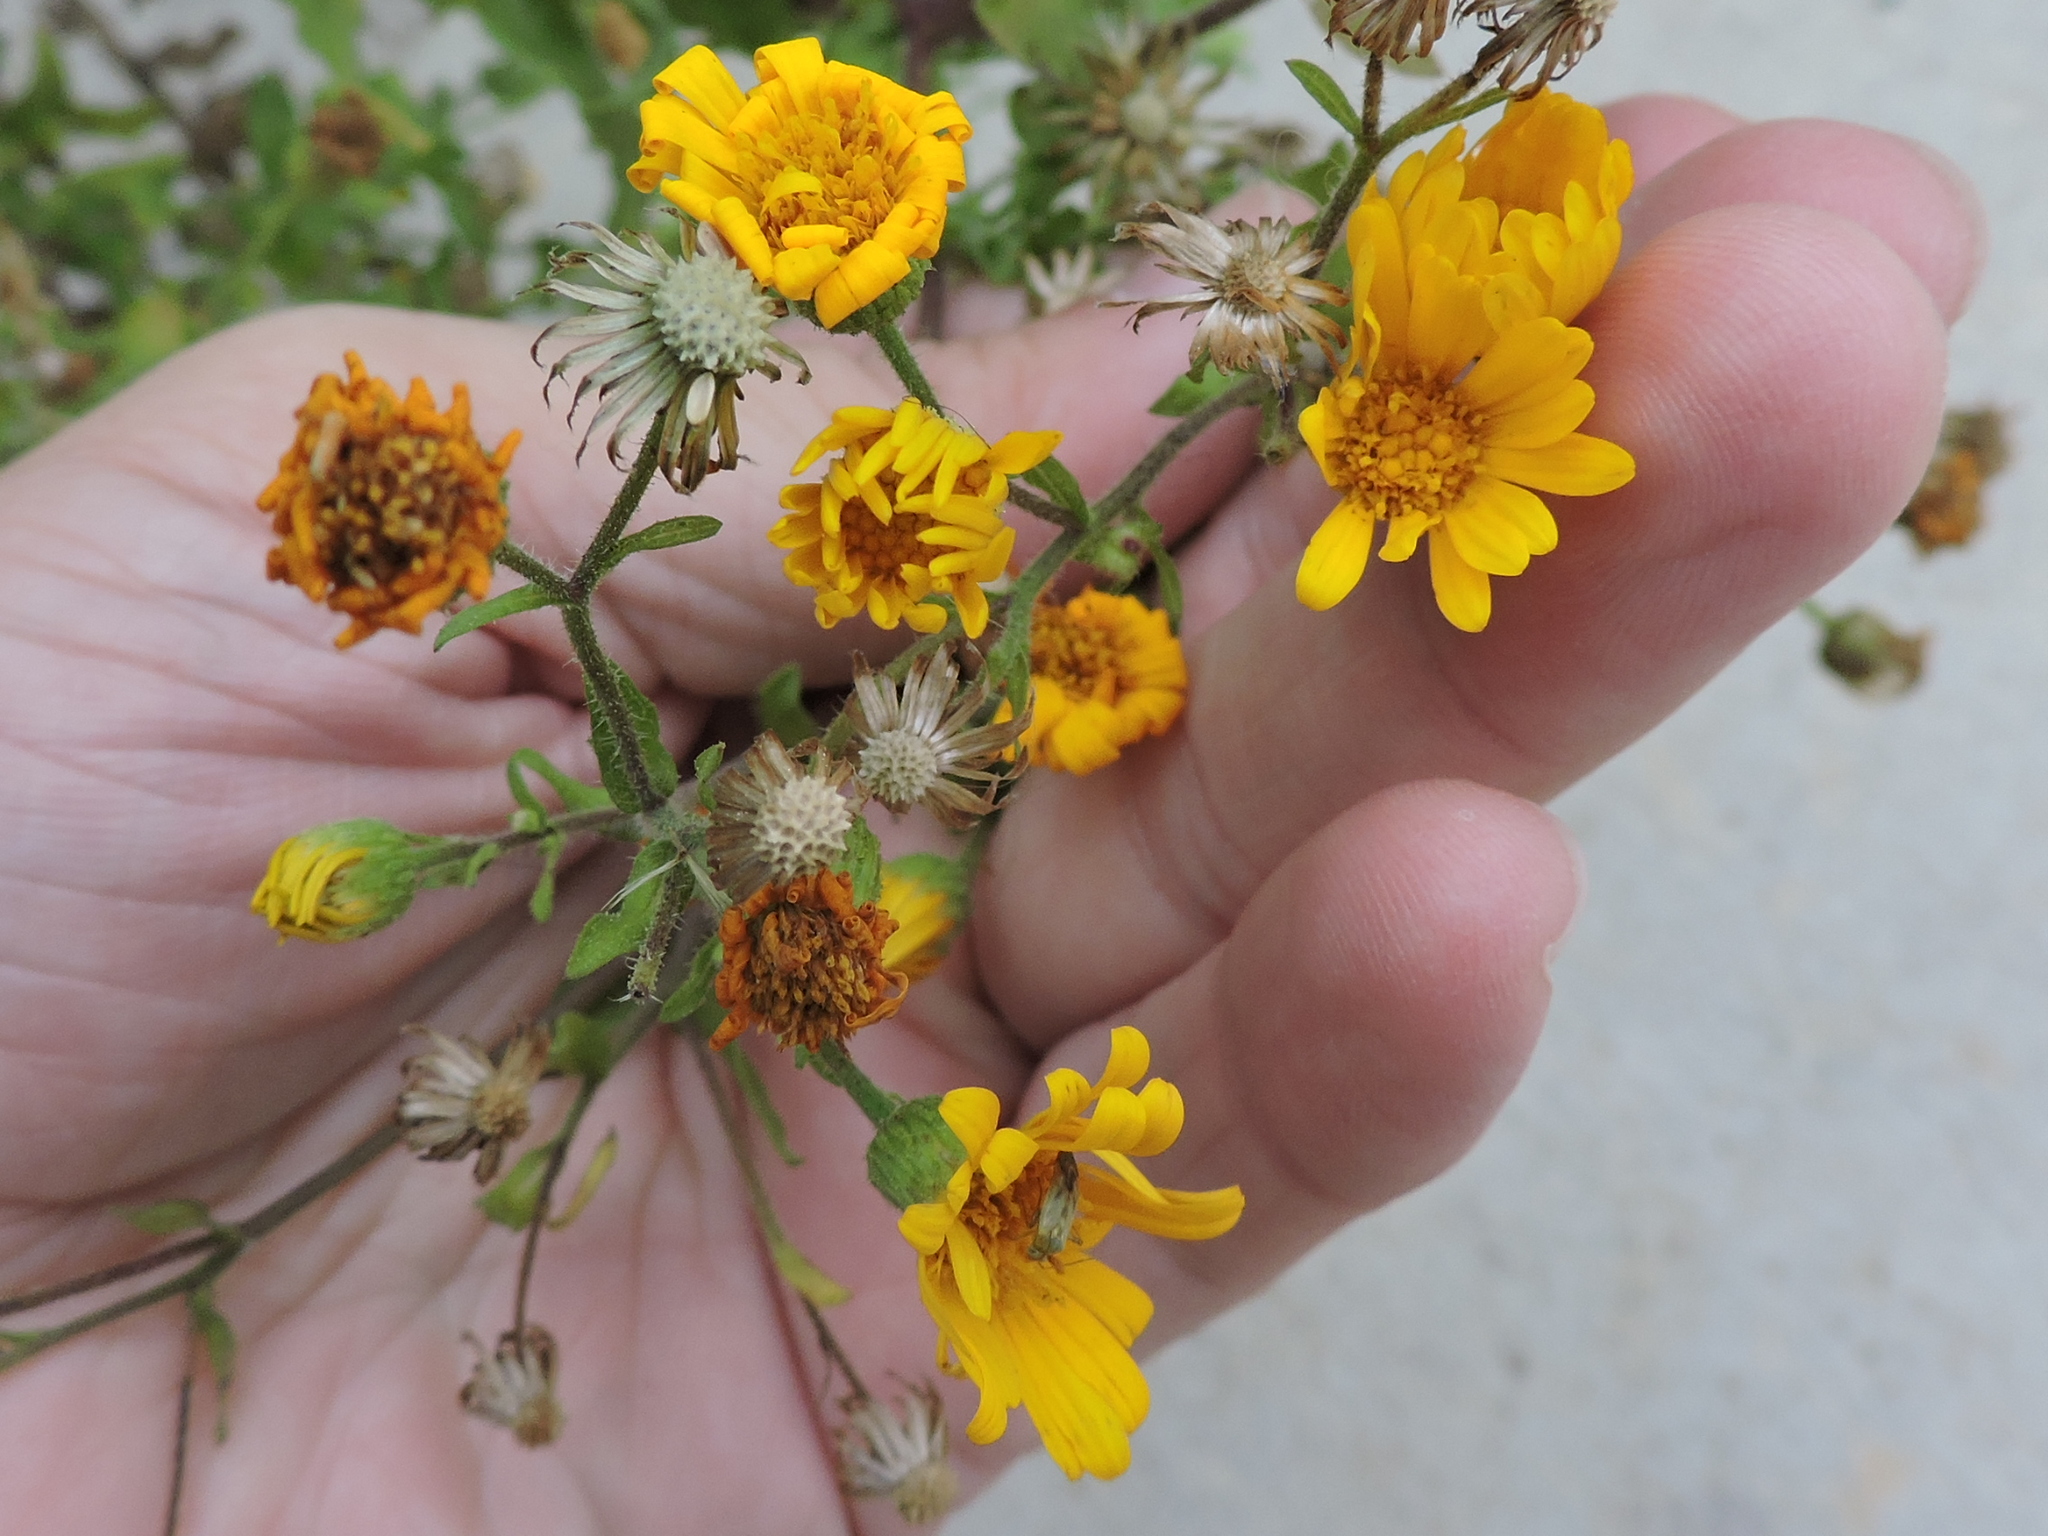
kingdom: Plantae
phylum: Tracheophyta
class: Magnoliopsida
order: Asterales
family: Asteraceae
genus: Heterotheca
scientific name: Heterotheca subaxillaris
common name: Camphorweed
